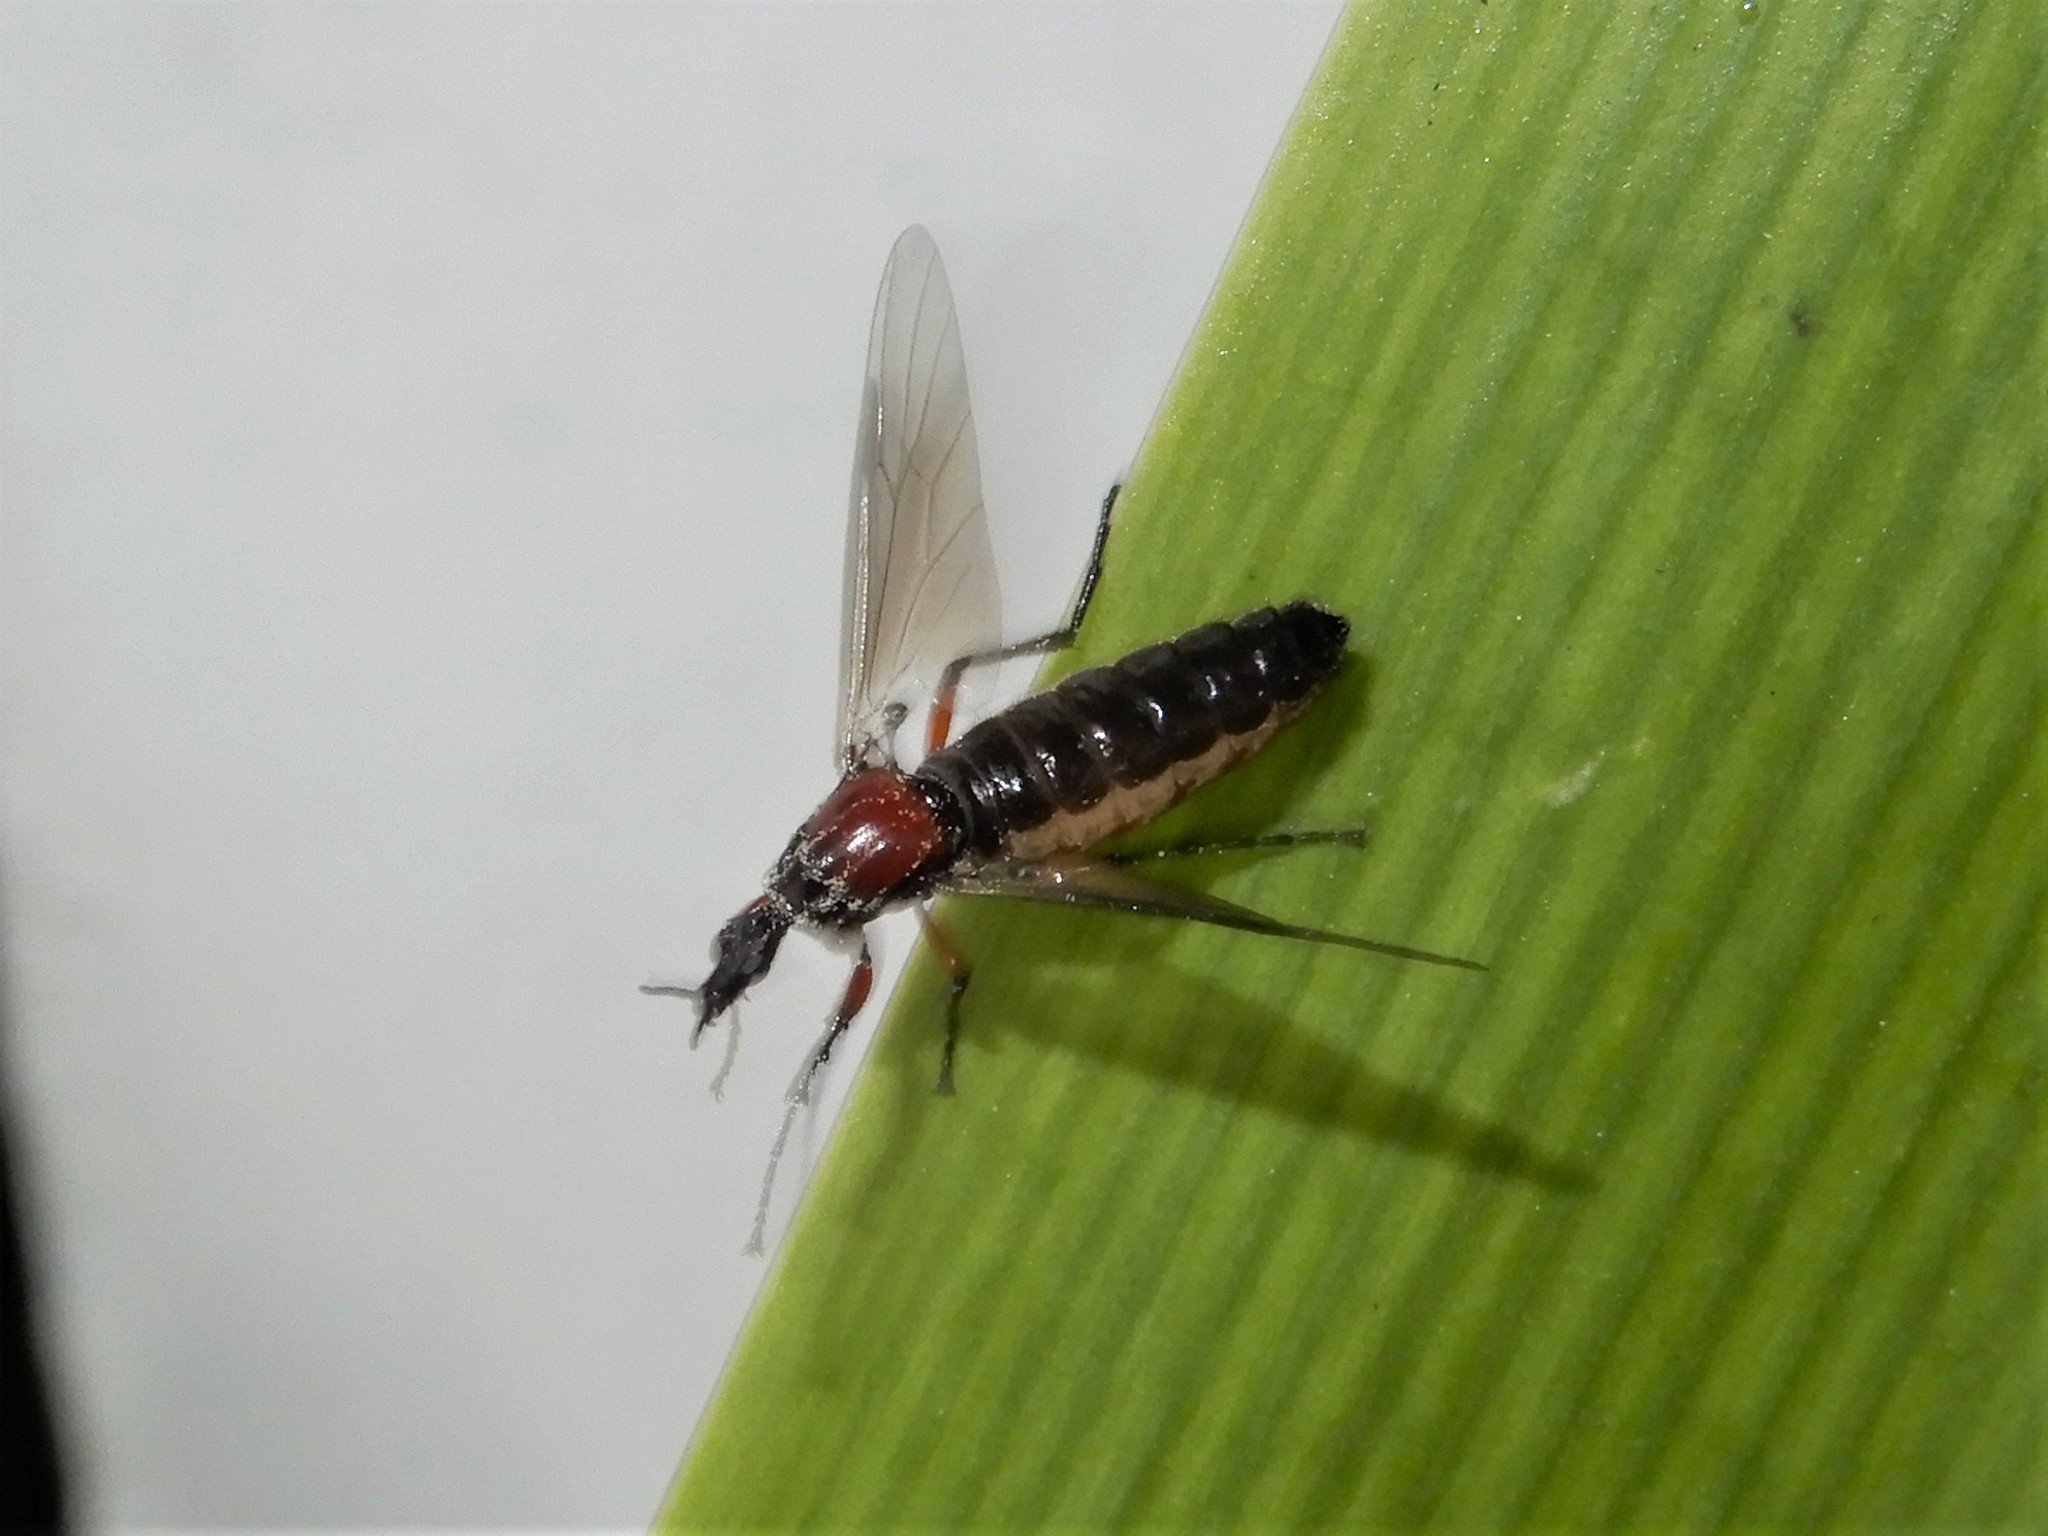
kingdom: Animalia
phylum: Arthropoda
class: Insecta
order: Diptera
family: Bibionidae
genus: Dilophus
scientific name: Dilophus nigrostigma
